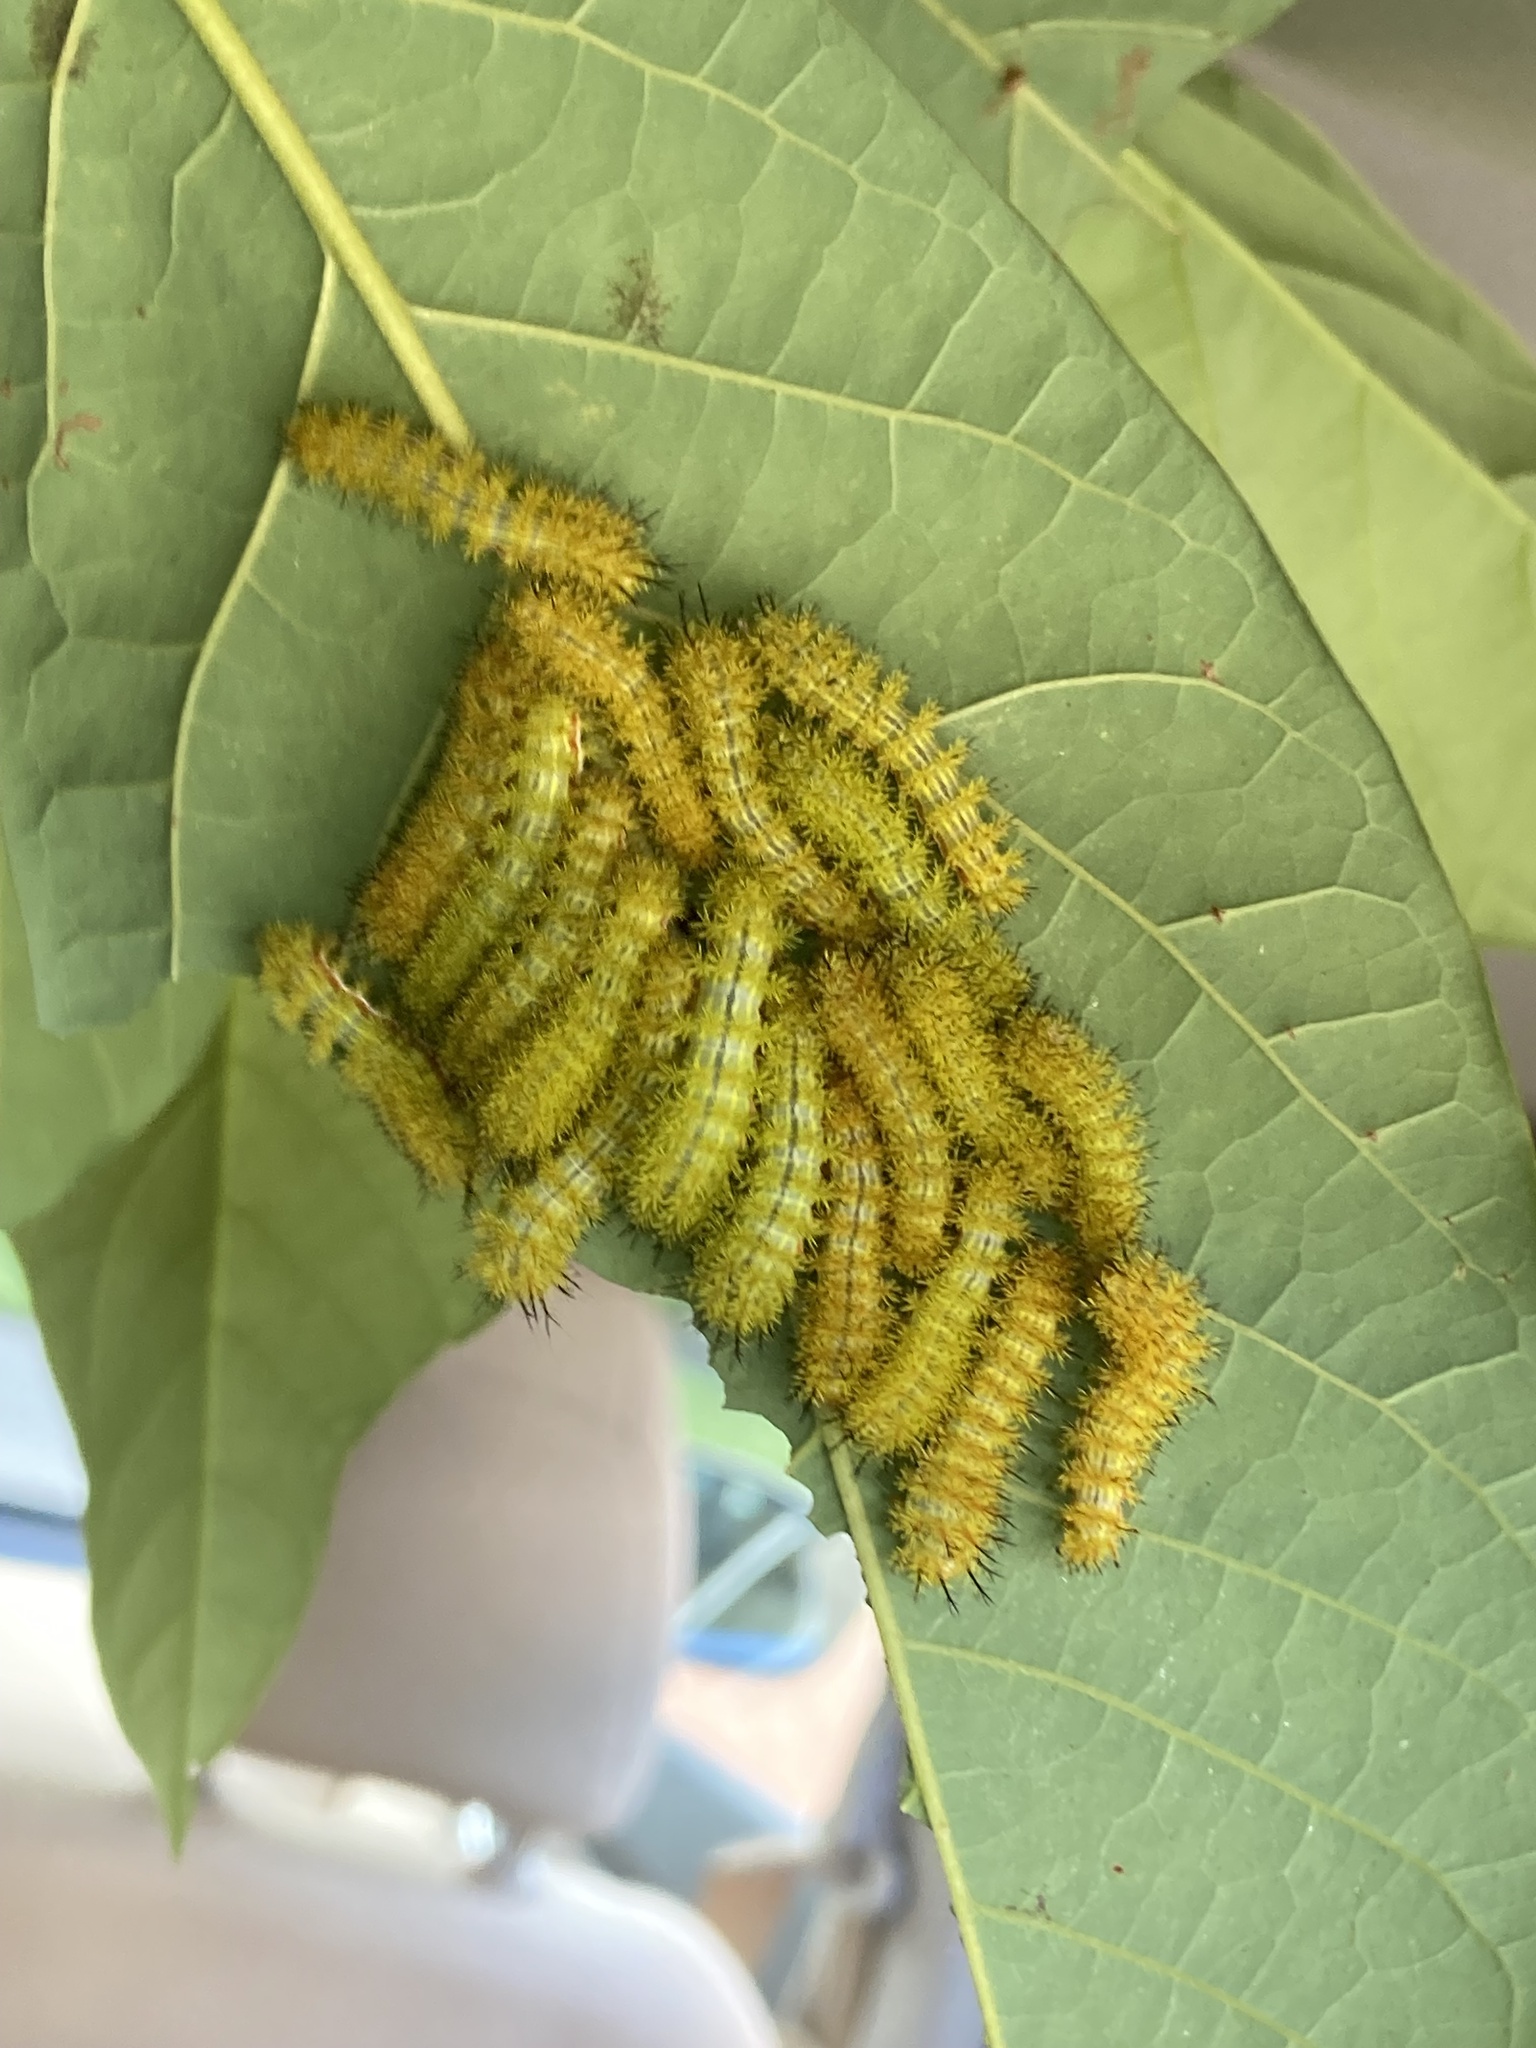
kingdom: Animalia
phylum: Arthropoda
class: Insecta
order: Lepidoptera
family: Saturniidae
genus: Automeris
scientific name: Automeris io
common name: Io moth
